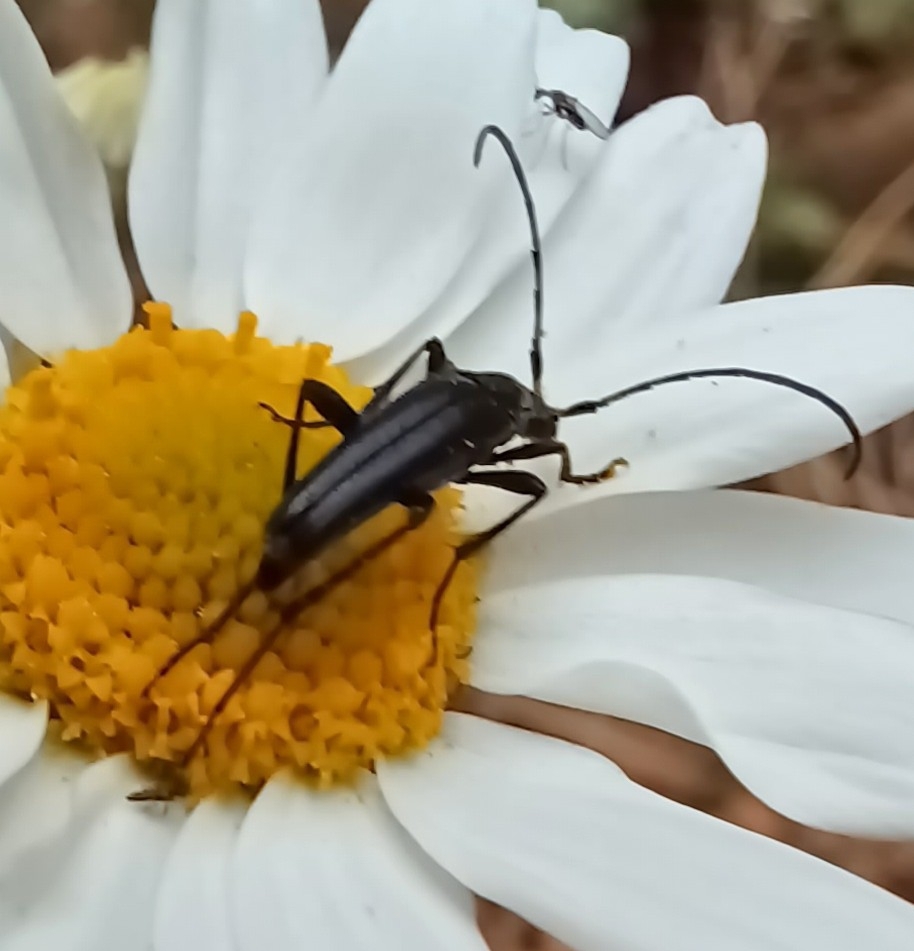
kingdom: Animalia
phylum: Arthropoda
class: Insecta
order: Coleoptera
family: Cerambycidae
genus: Stenurella
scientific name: Stenurella nigra
